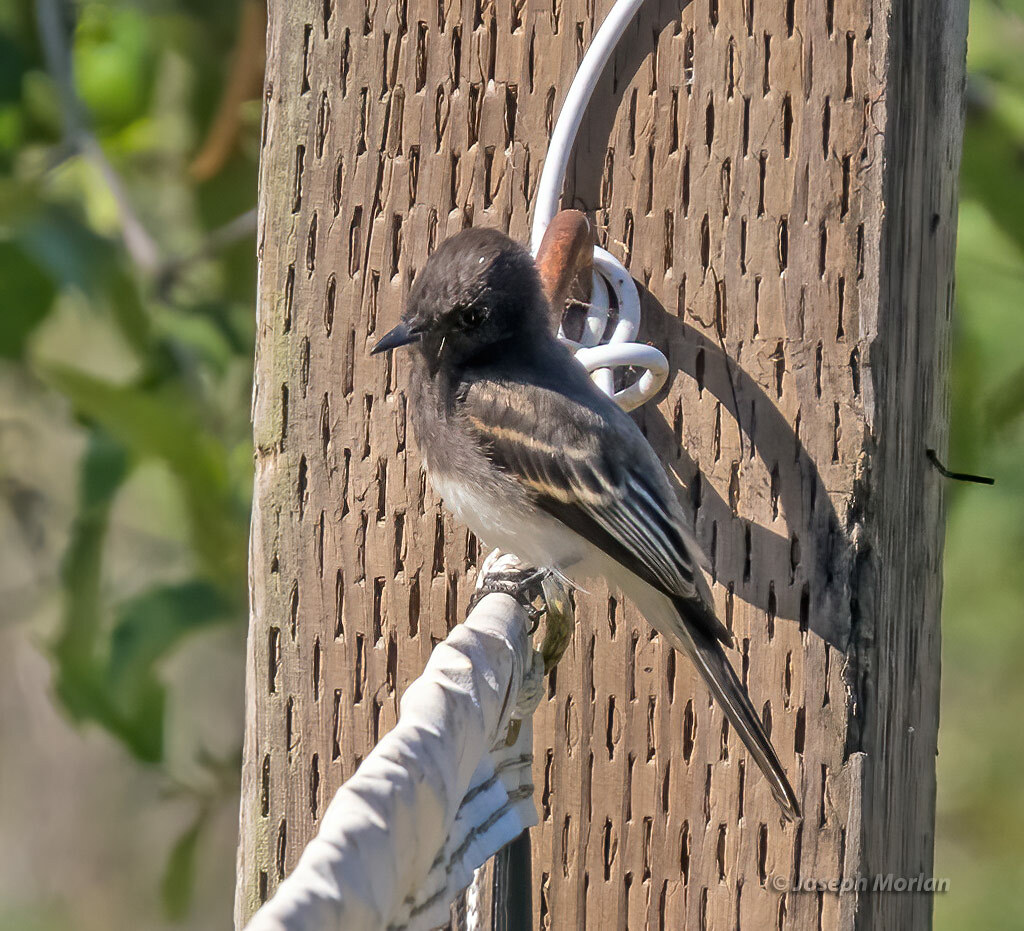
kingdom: Animalia
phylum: Chordata
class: Aves
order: Passeriformes
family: Tyrannidae
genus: Sayornis
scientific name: Sayornis nigricans
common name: Black phoebe
